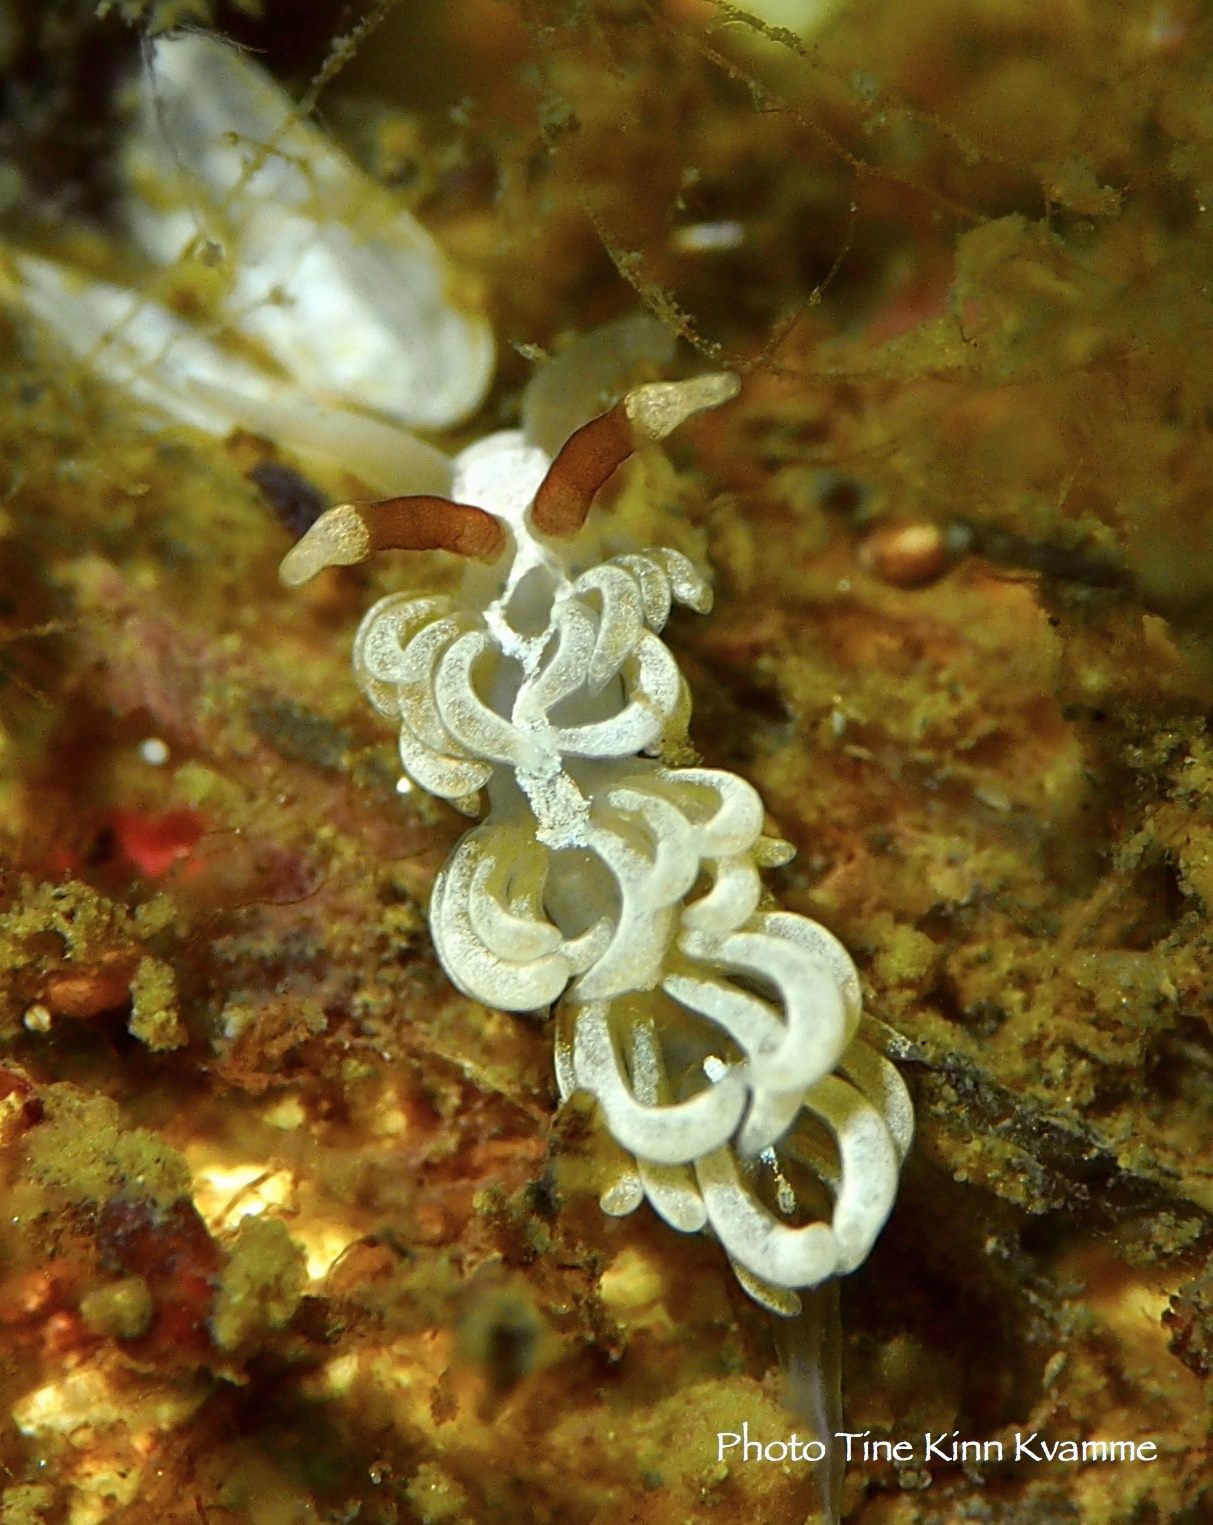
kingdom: Animalia
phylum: Mollusca
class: Gastropoda
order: Nudibranchia
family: Facelinidae
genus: Favorinus
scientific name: Favorinus branchialis
